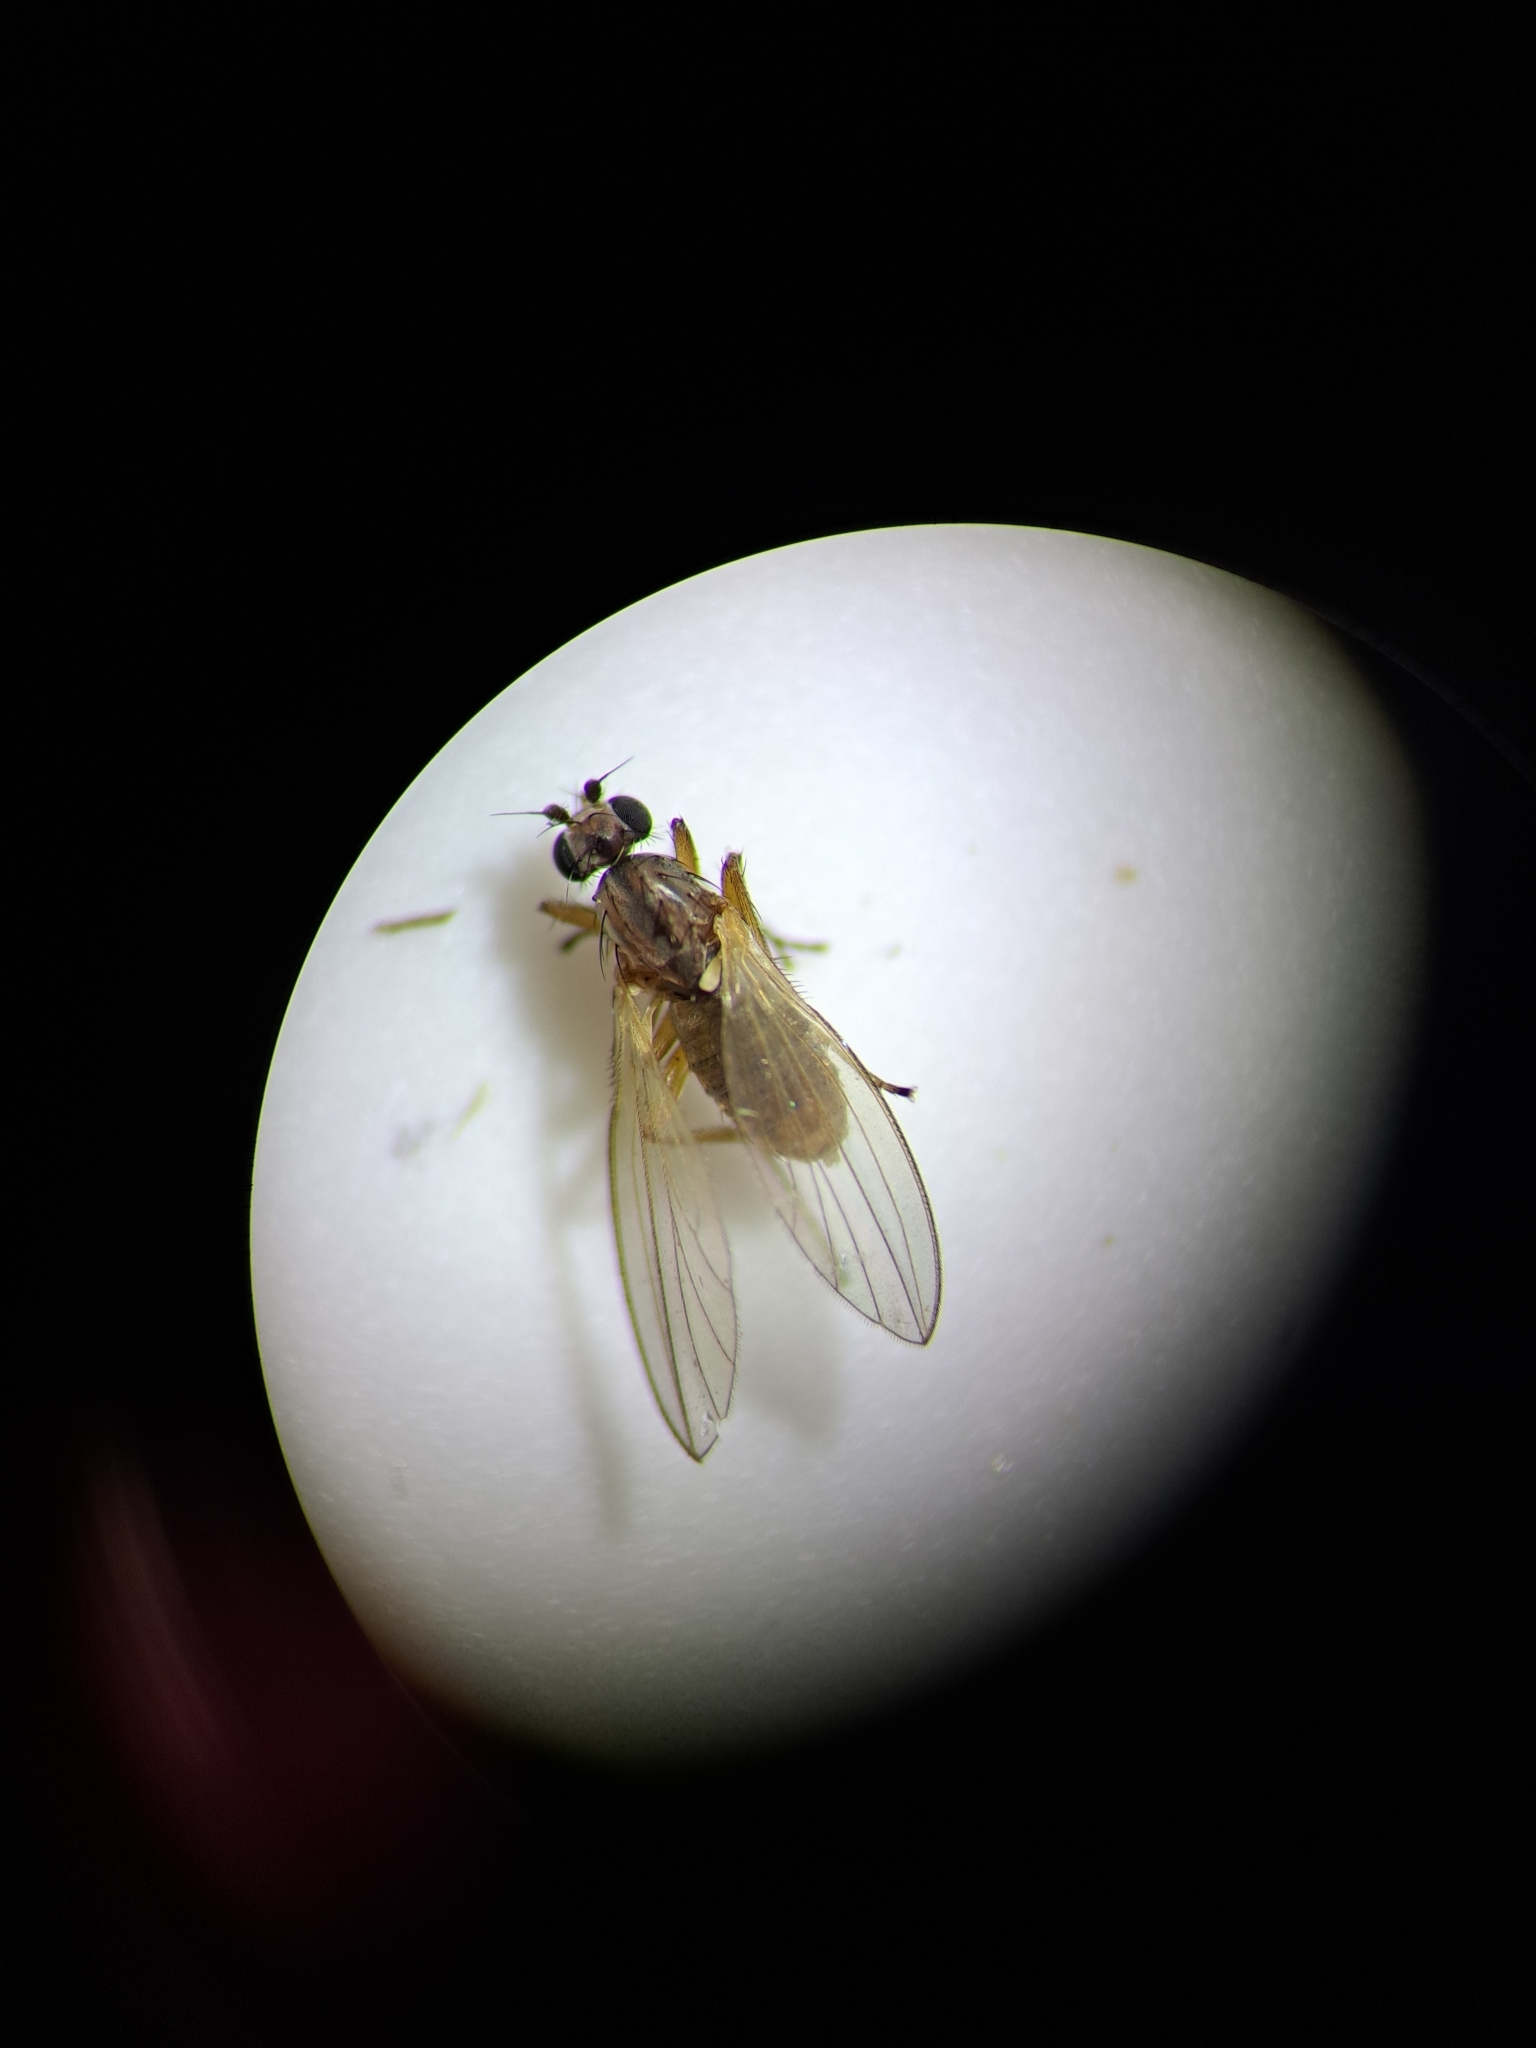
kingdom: Animalia
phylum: Arthropoda
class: Insecta
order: Diptera
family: Lonchopteridae
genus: Lonchoptera
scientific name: Lonchoptera bifurcata
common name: Spear-winged fly
